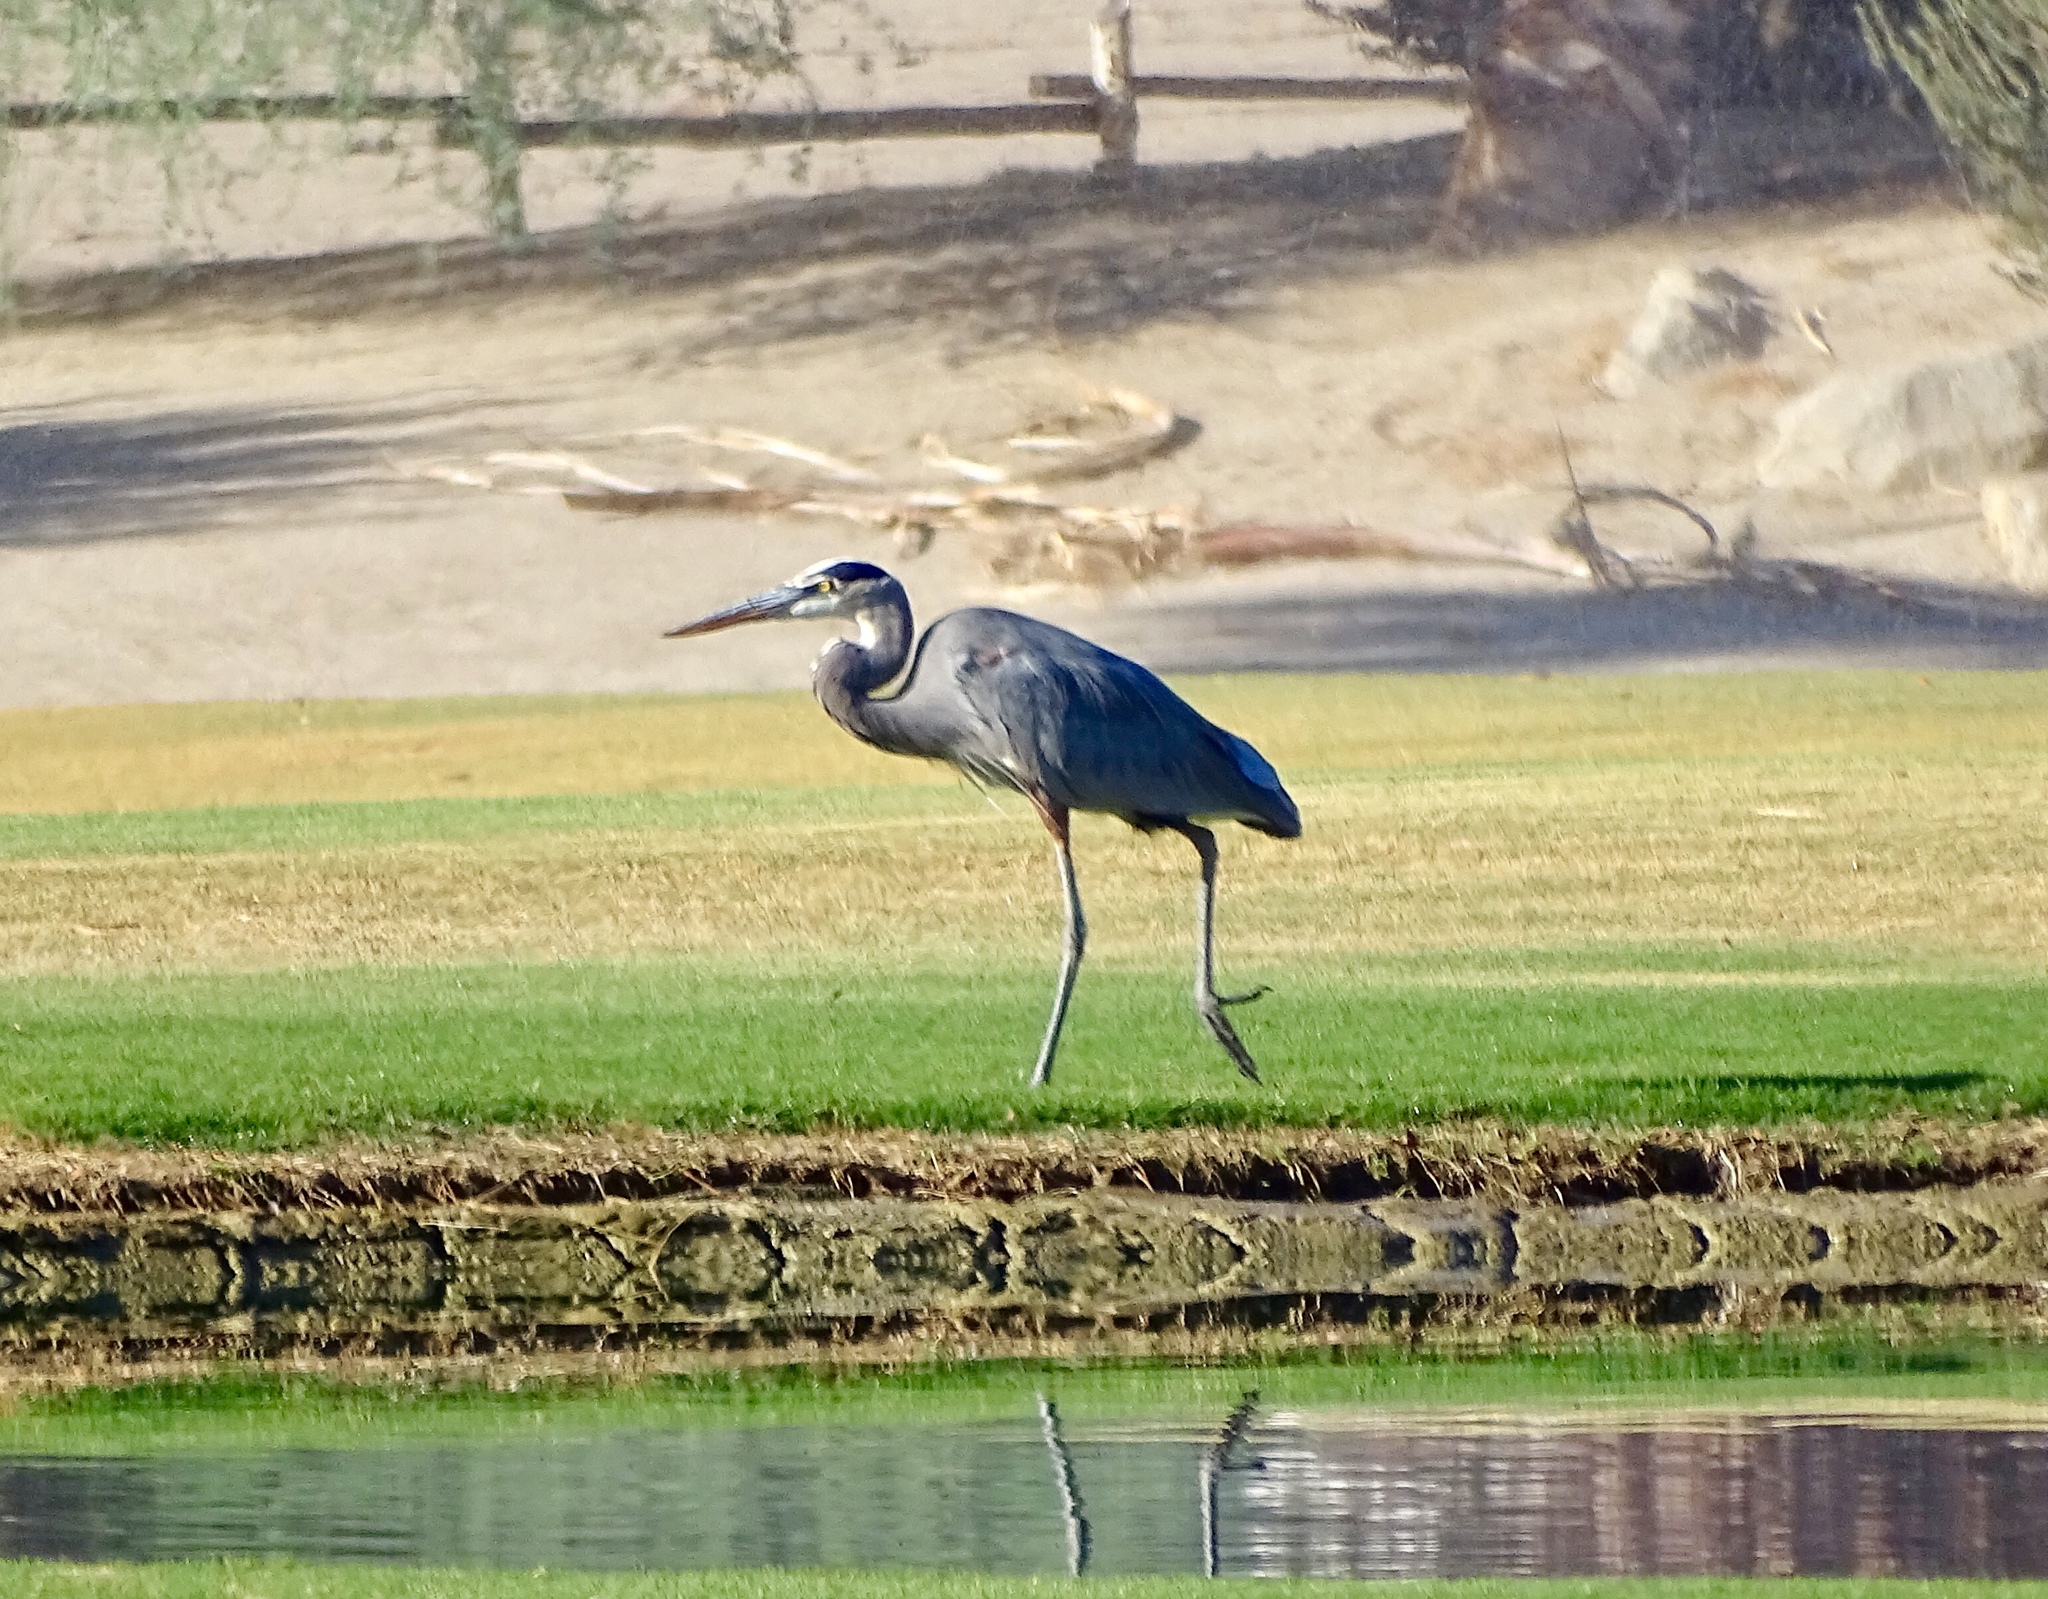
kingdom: Animalia
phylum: Chordata
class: Aves
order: Pelecaniformes
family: Ardeidae
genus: Ardea
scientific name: Ardea herodias
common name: Great blue heron
